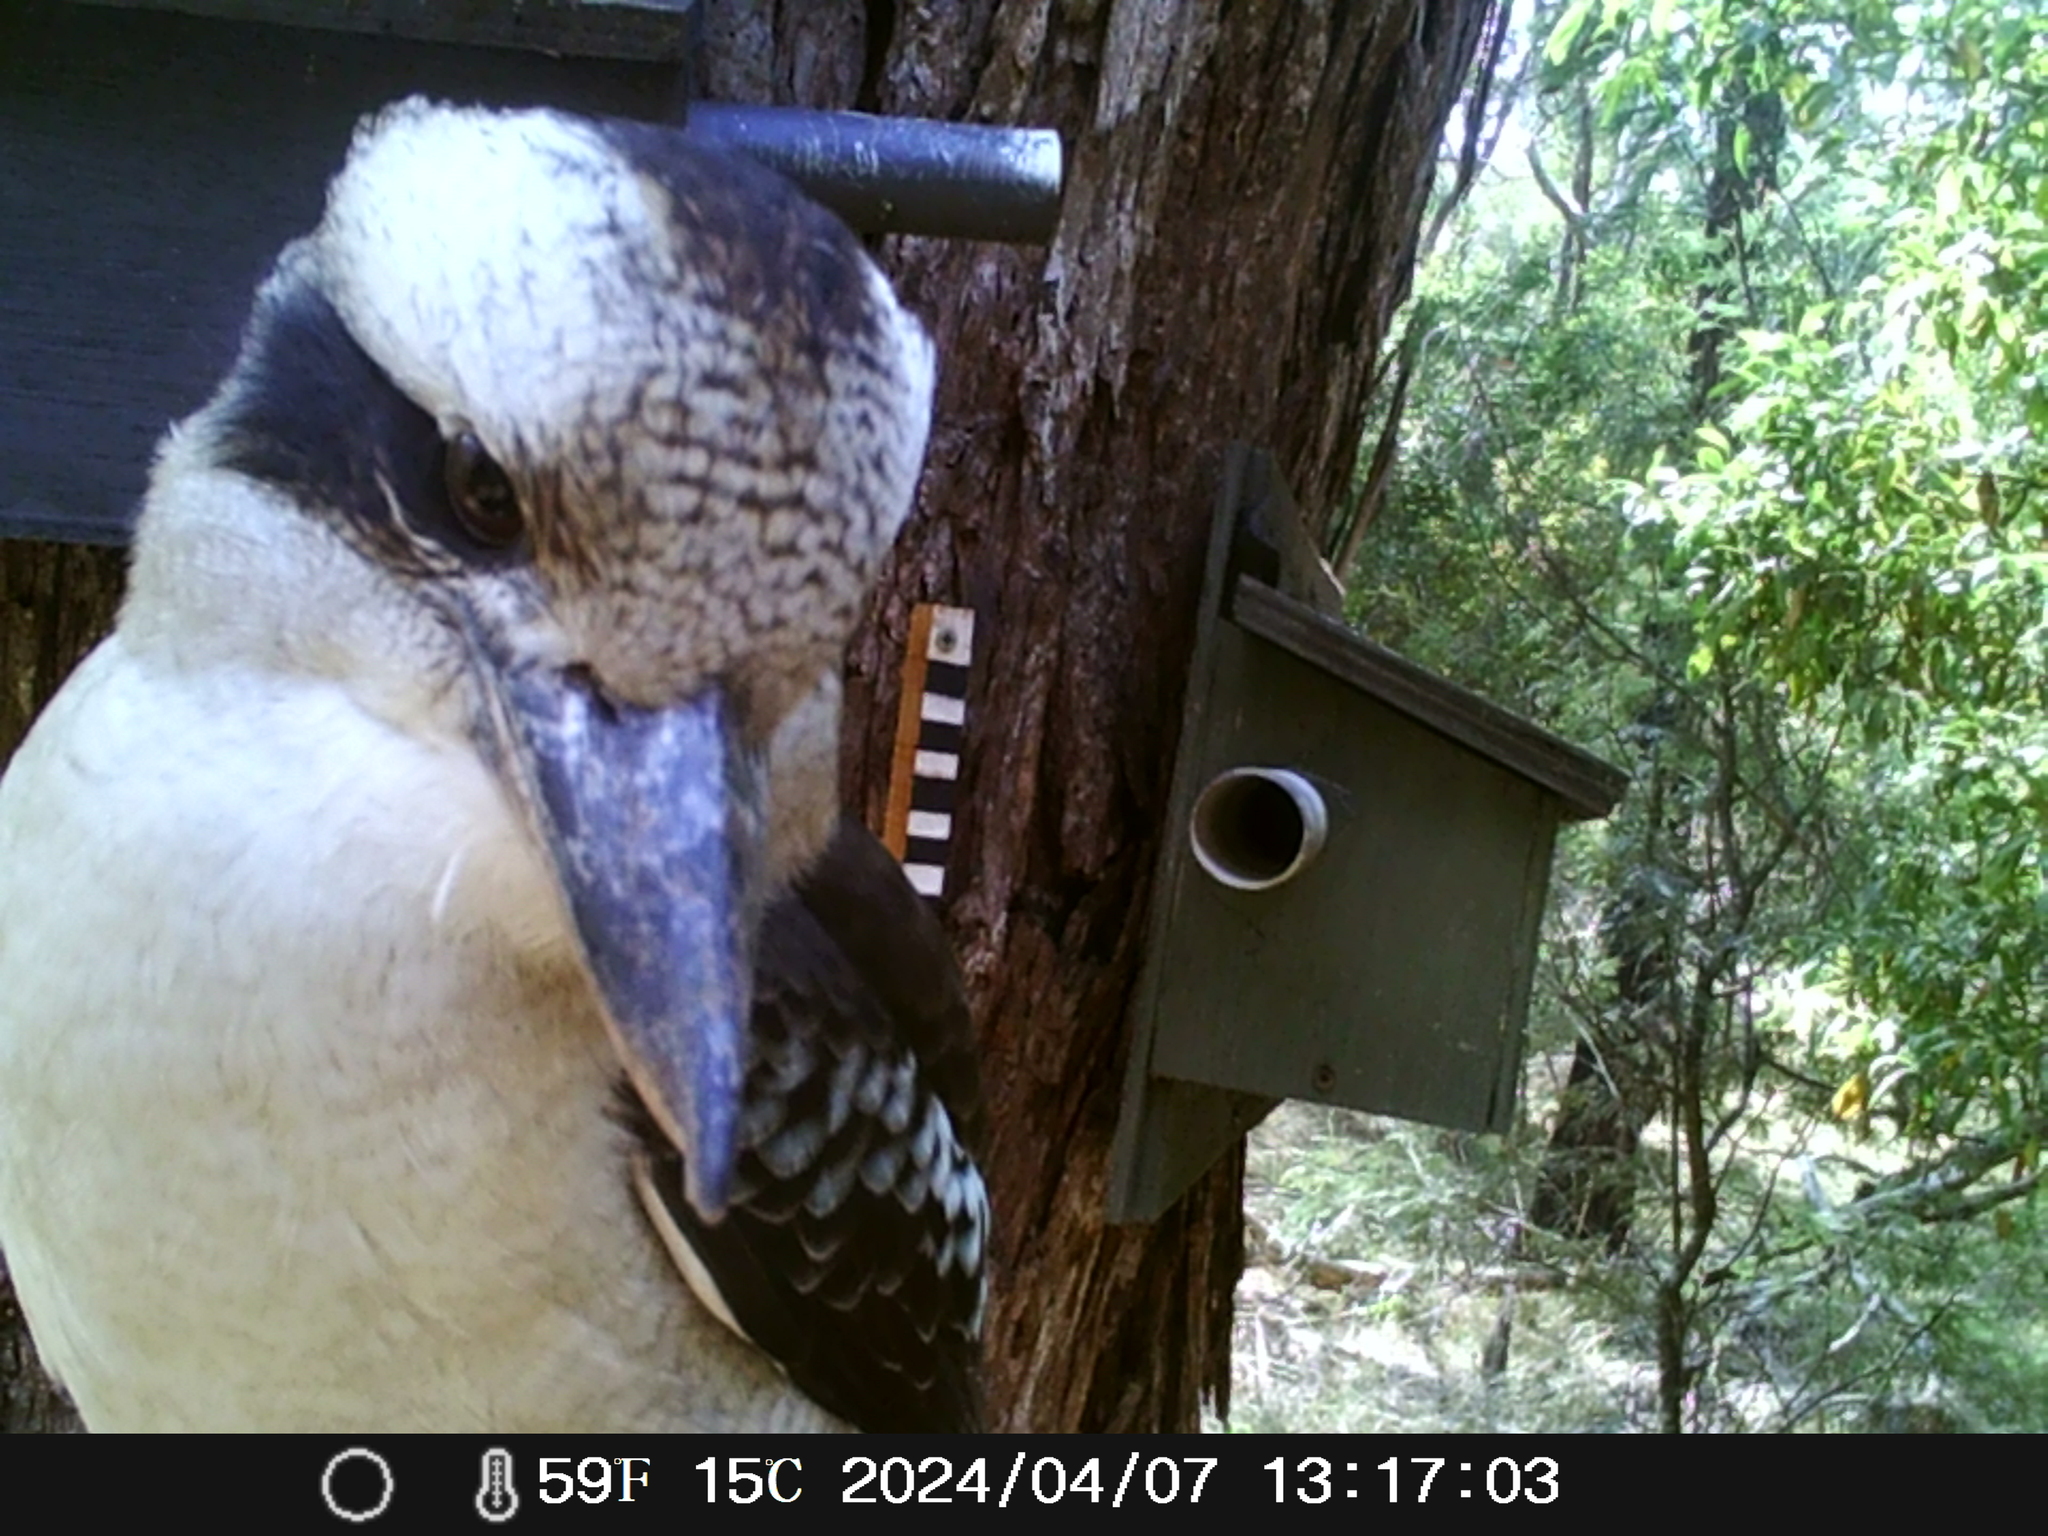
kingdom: Animalia
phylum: Chordata
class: Aves
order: Coraciiformes
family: Alcedinidae
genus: Dacelo
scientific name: Dacelo novaeguineae
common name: Laughing kookaburra
